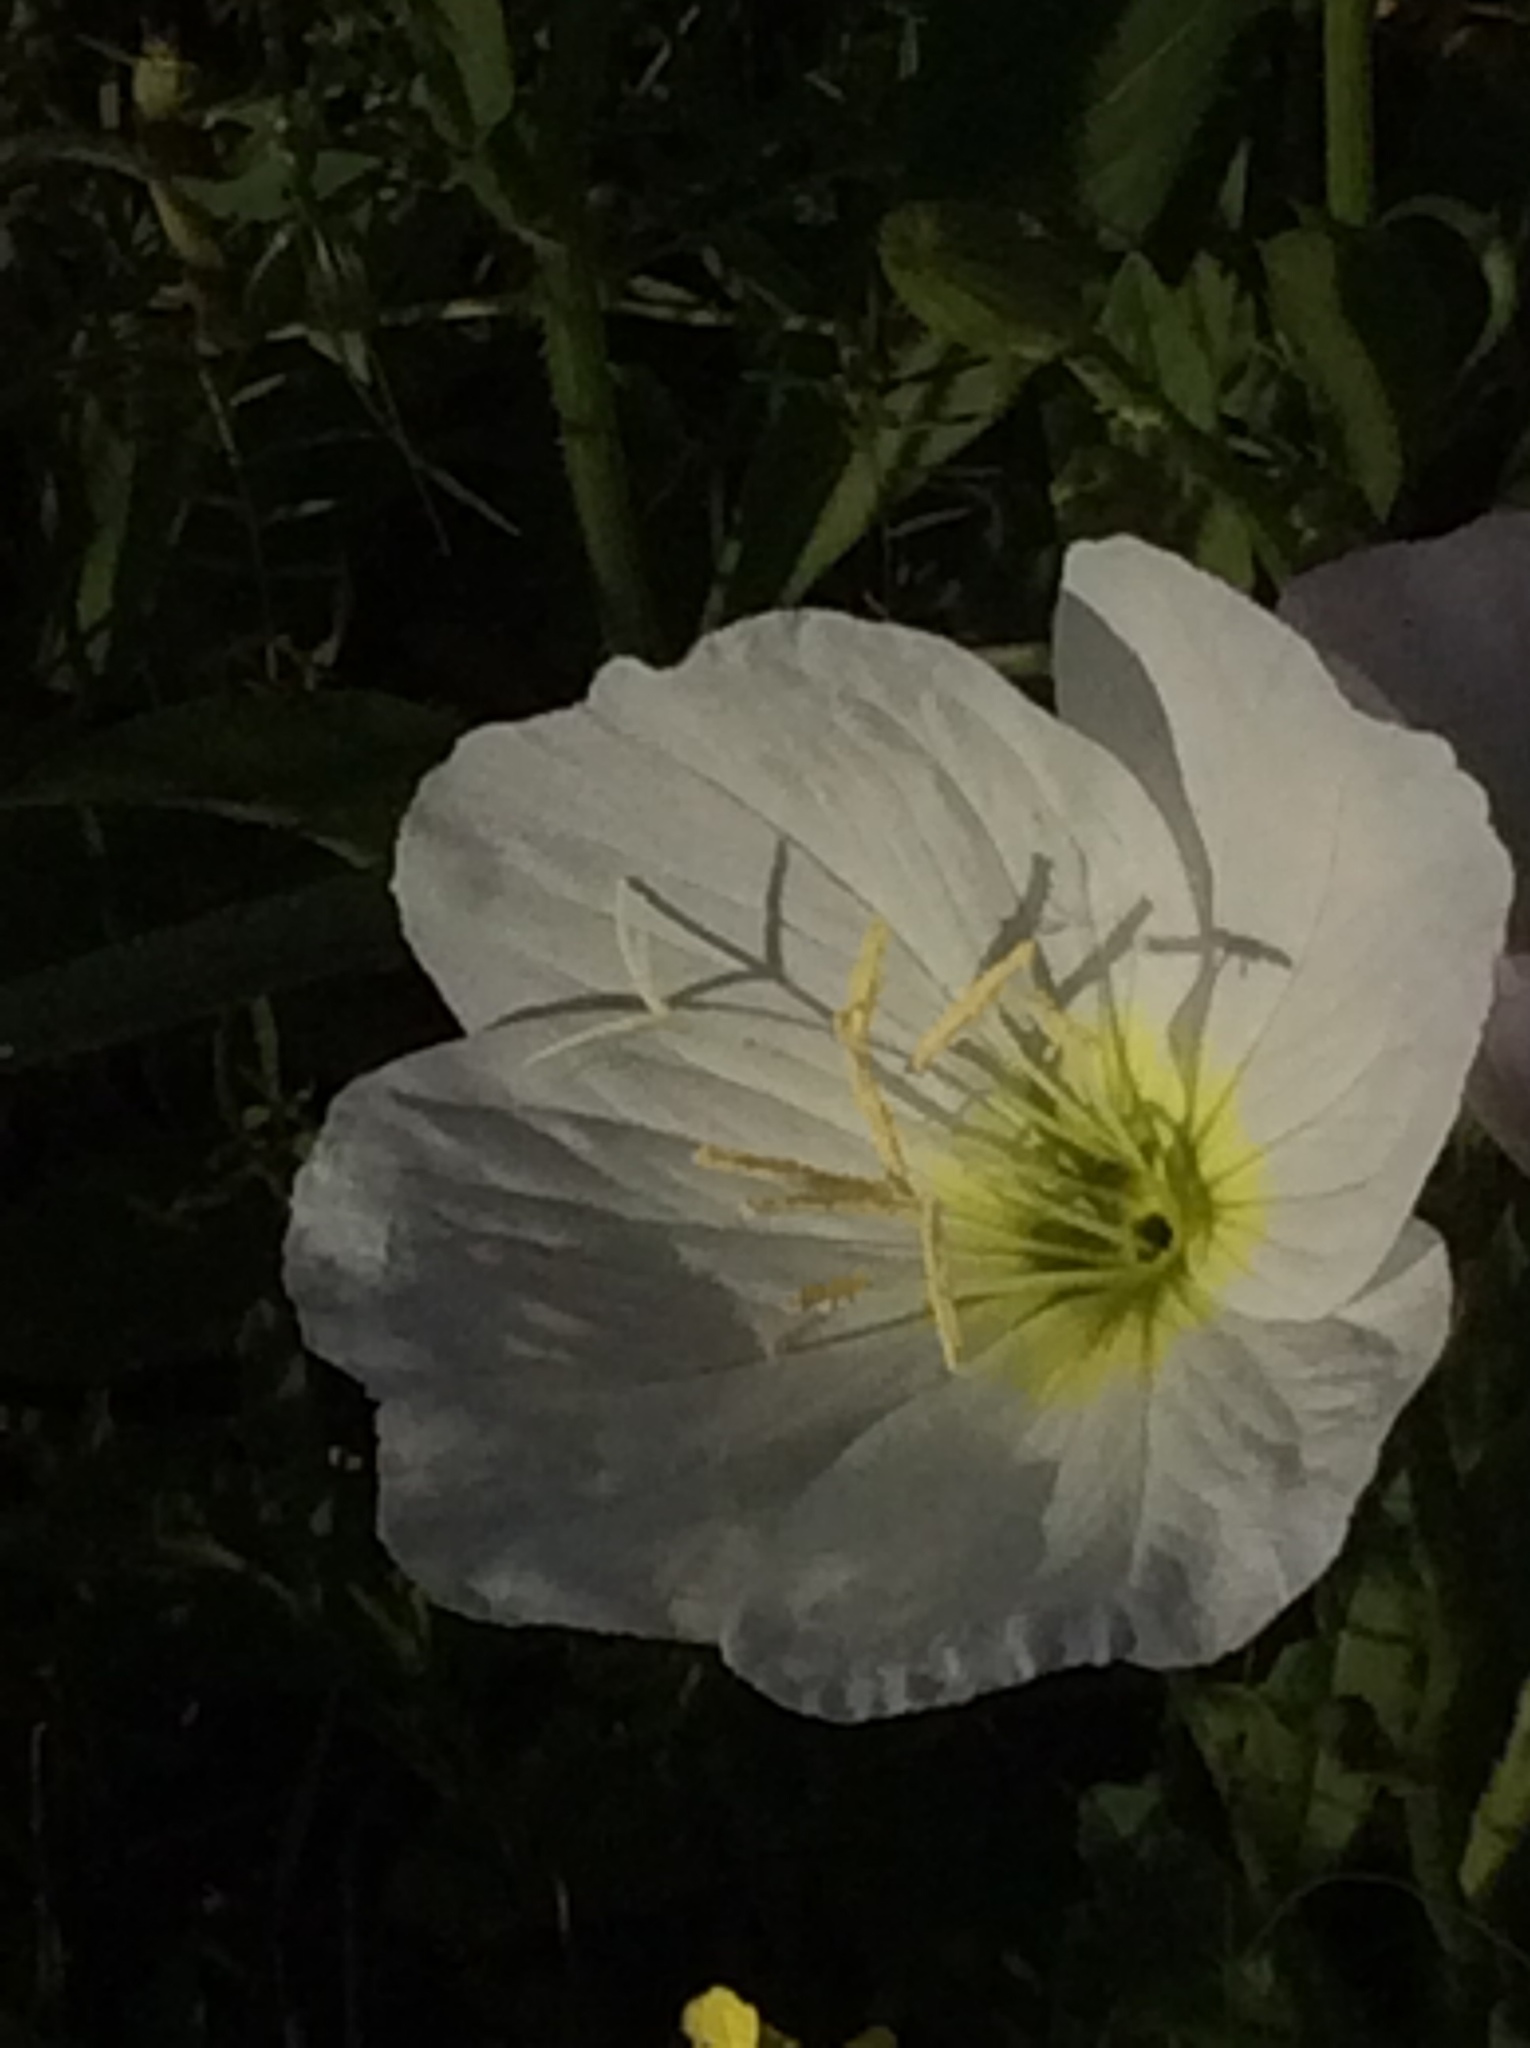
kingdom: Plantae
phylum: Tracheophyta
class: Magnoliopsida
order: Myrtales
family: Onagraceae
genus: Oenothera
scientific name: Oenothera speciosa
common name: White evening-primrose
